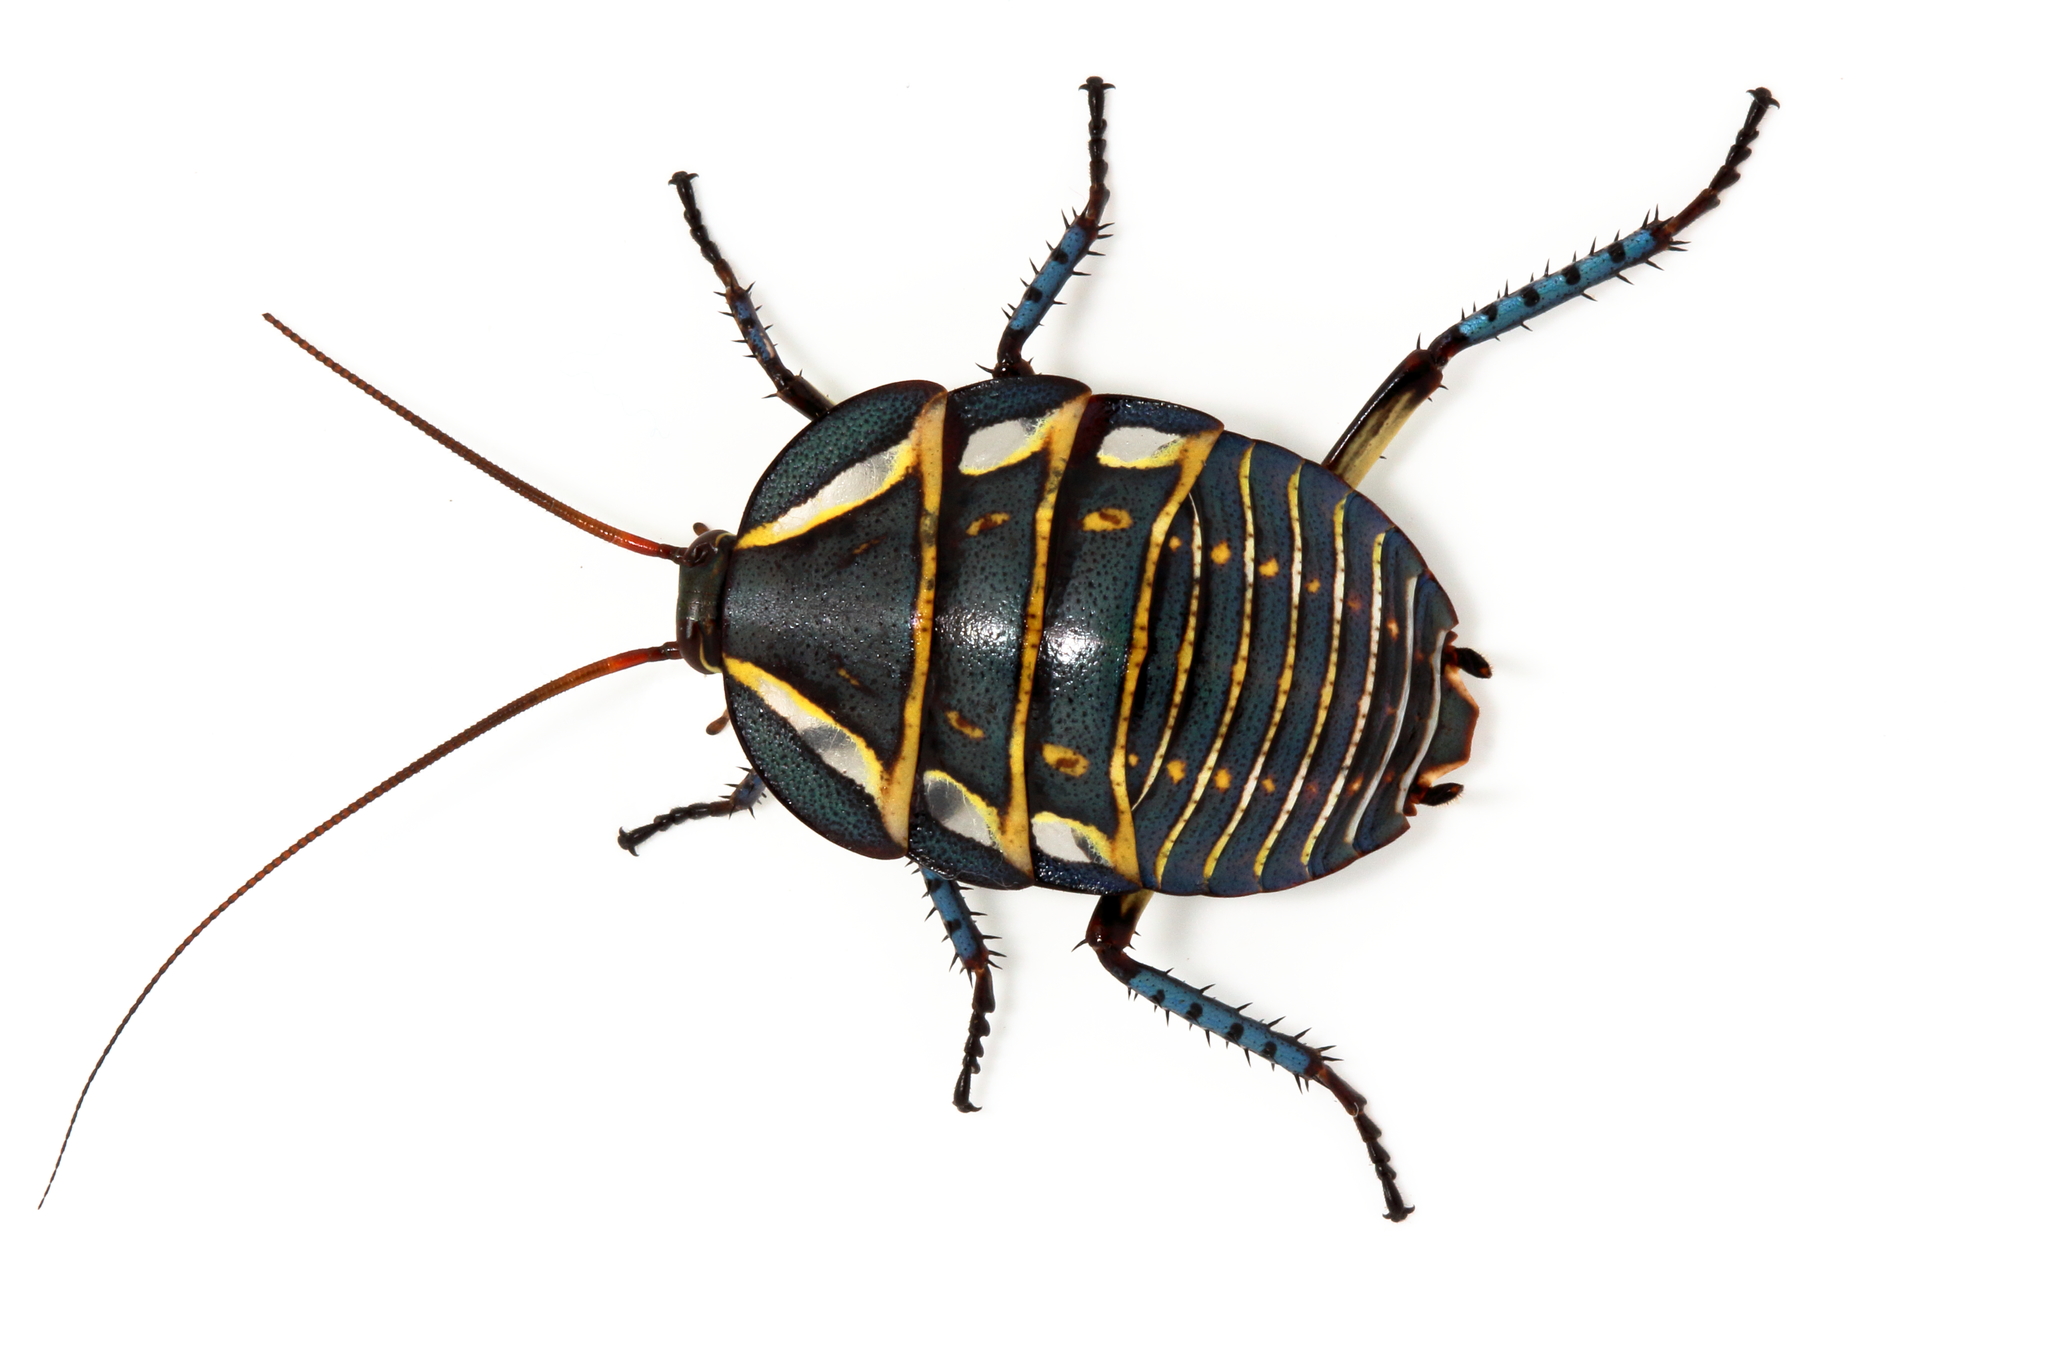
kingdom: Animalia
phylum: Arthropoda
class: Insecta
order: Blattodea
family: Blattidae
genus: Polyzosteria
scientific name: Polyzosteria mitchelli
